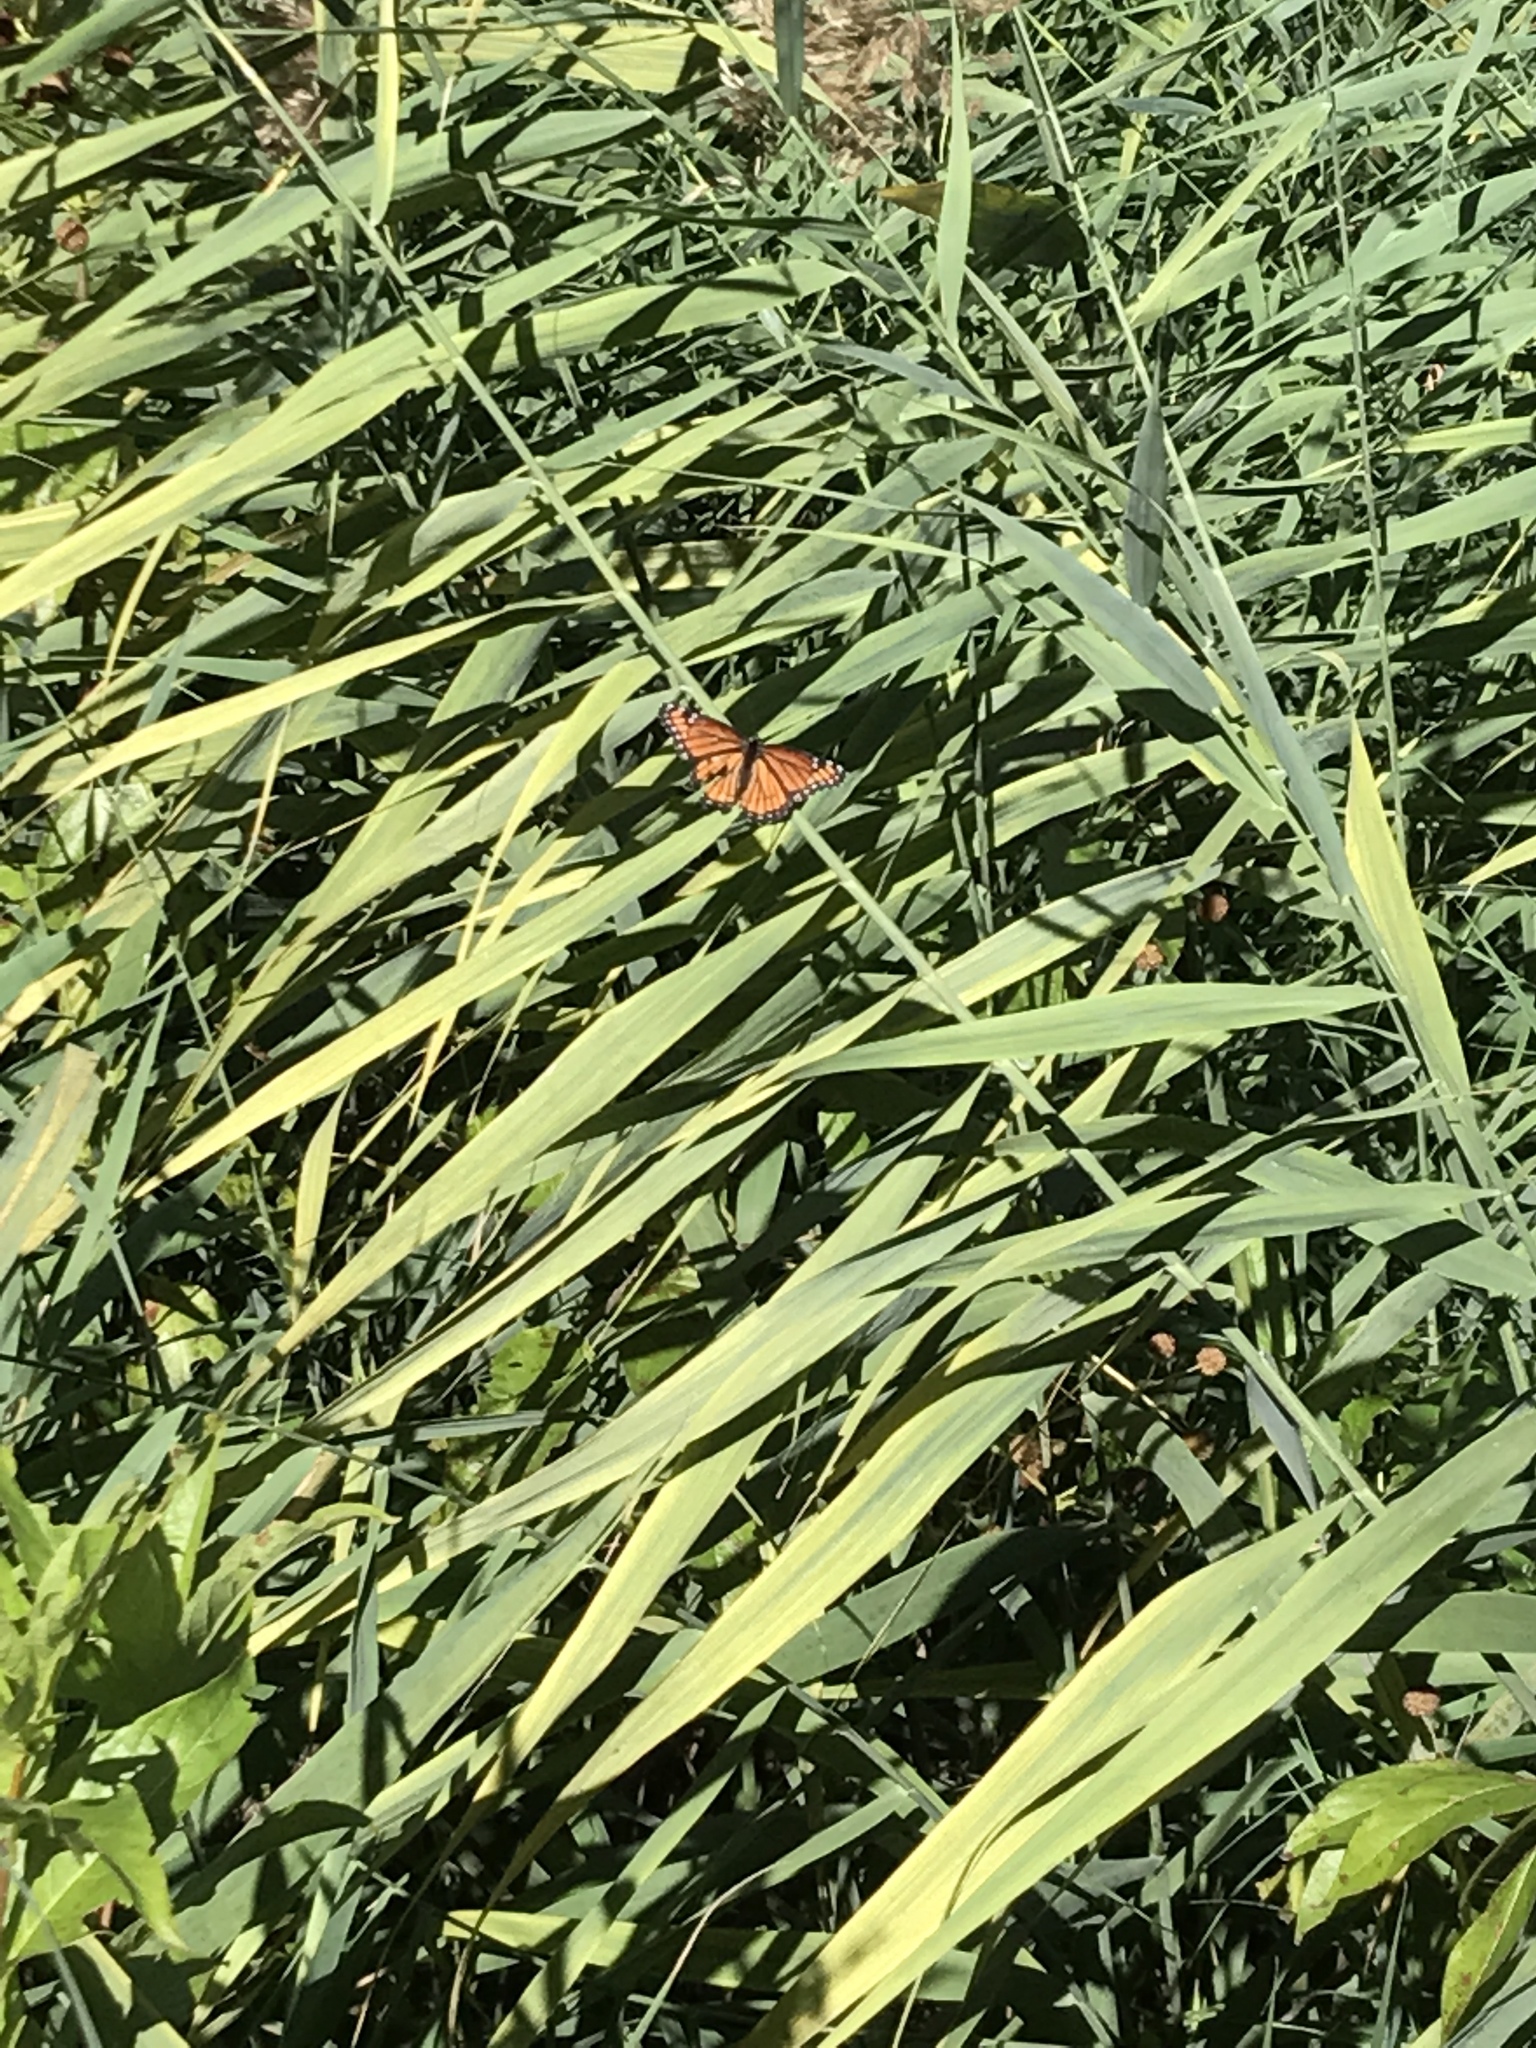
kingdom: Animalia
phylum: Arthropoda
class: Insecta
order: Lepidoptera
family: Nymphalidae
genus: Limenitis
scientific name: Limenitis archippus
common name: Viceroy
